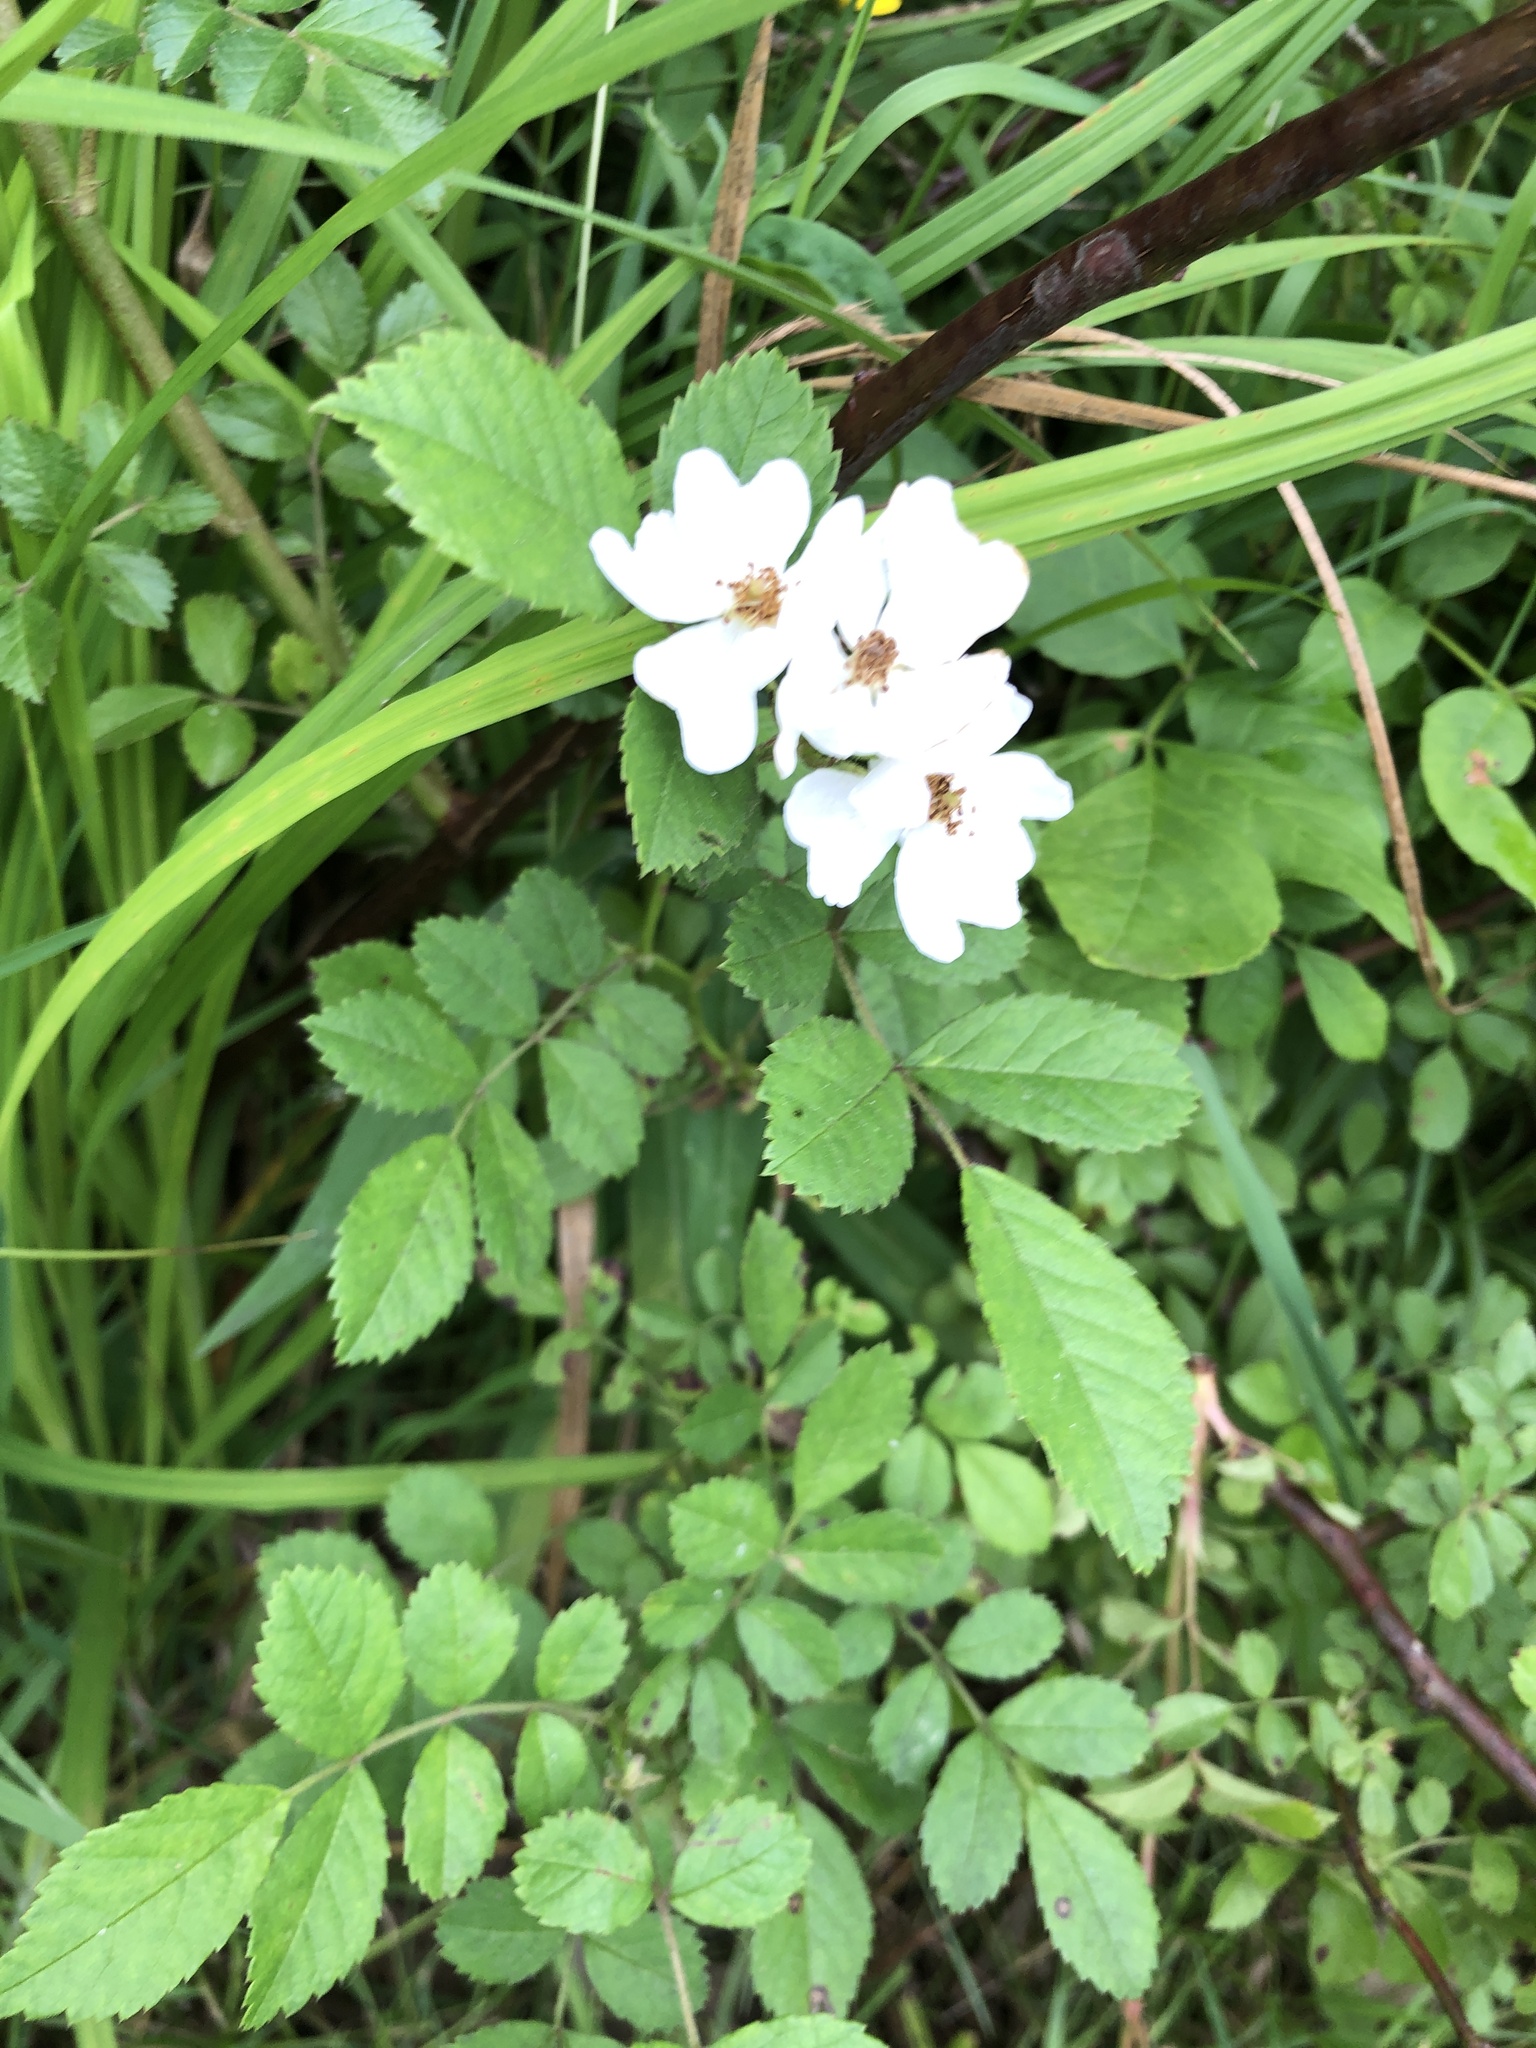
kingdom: Plantae
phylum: Tracheophyta
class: Magnoliopsida
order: Rosales
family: Rosaceae
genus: Rosa
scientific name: Rosa multiflora
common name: Multiflora rose
